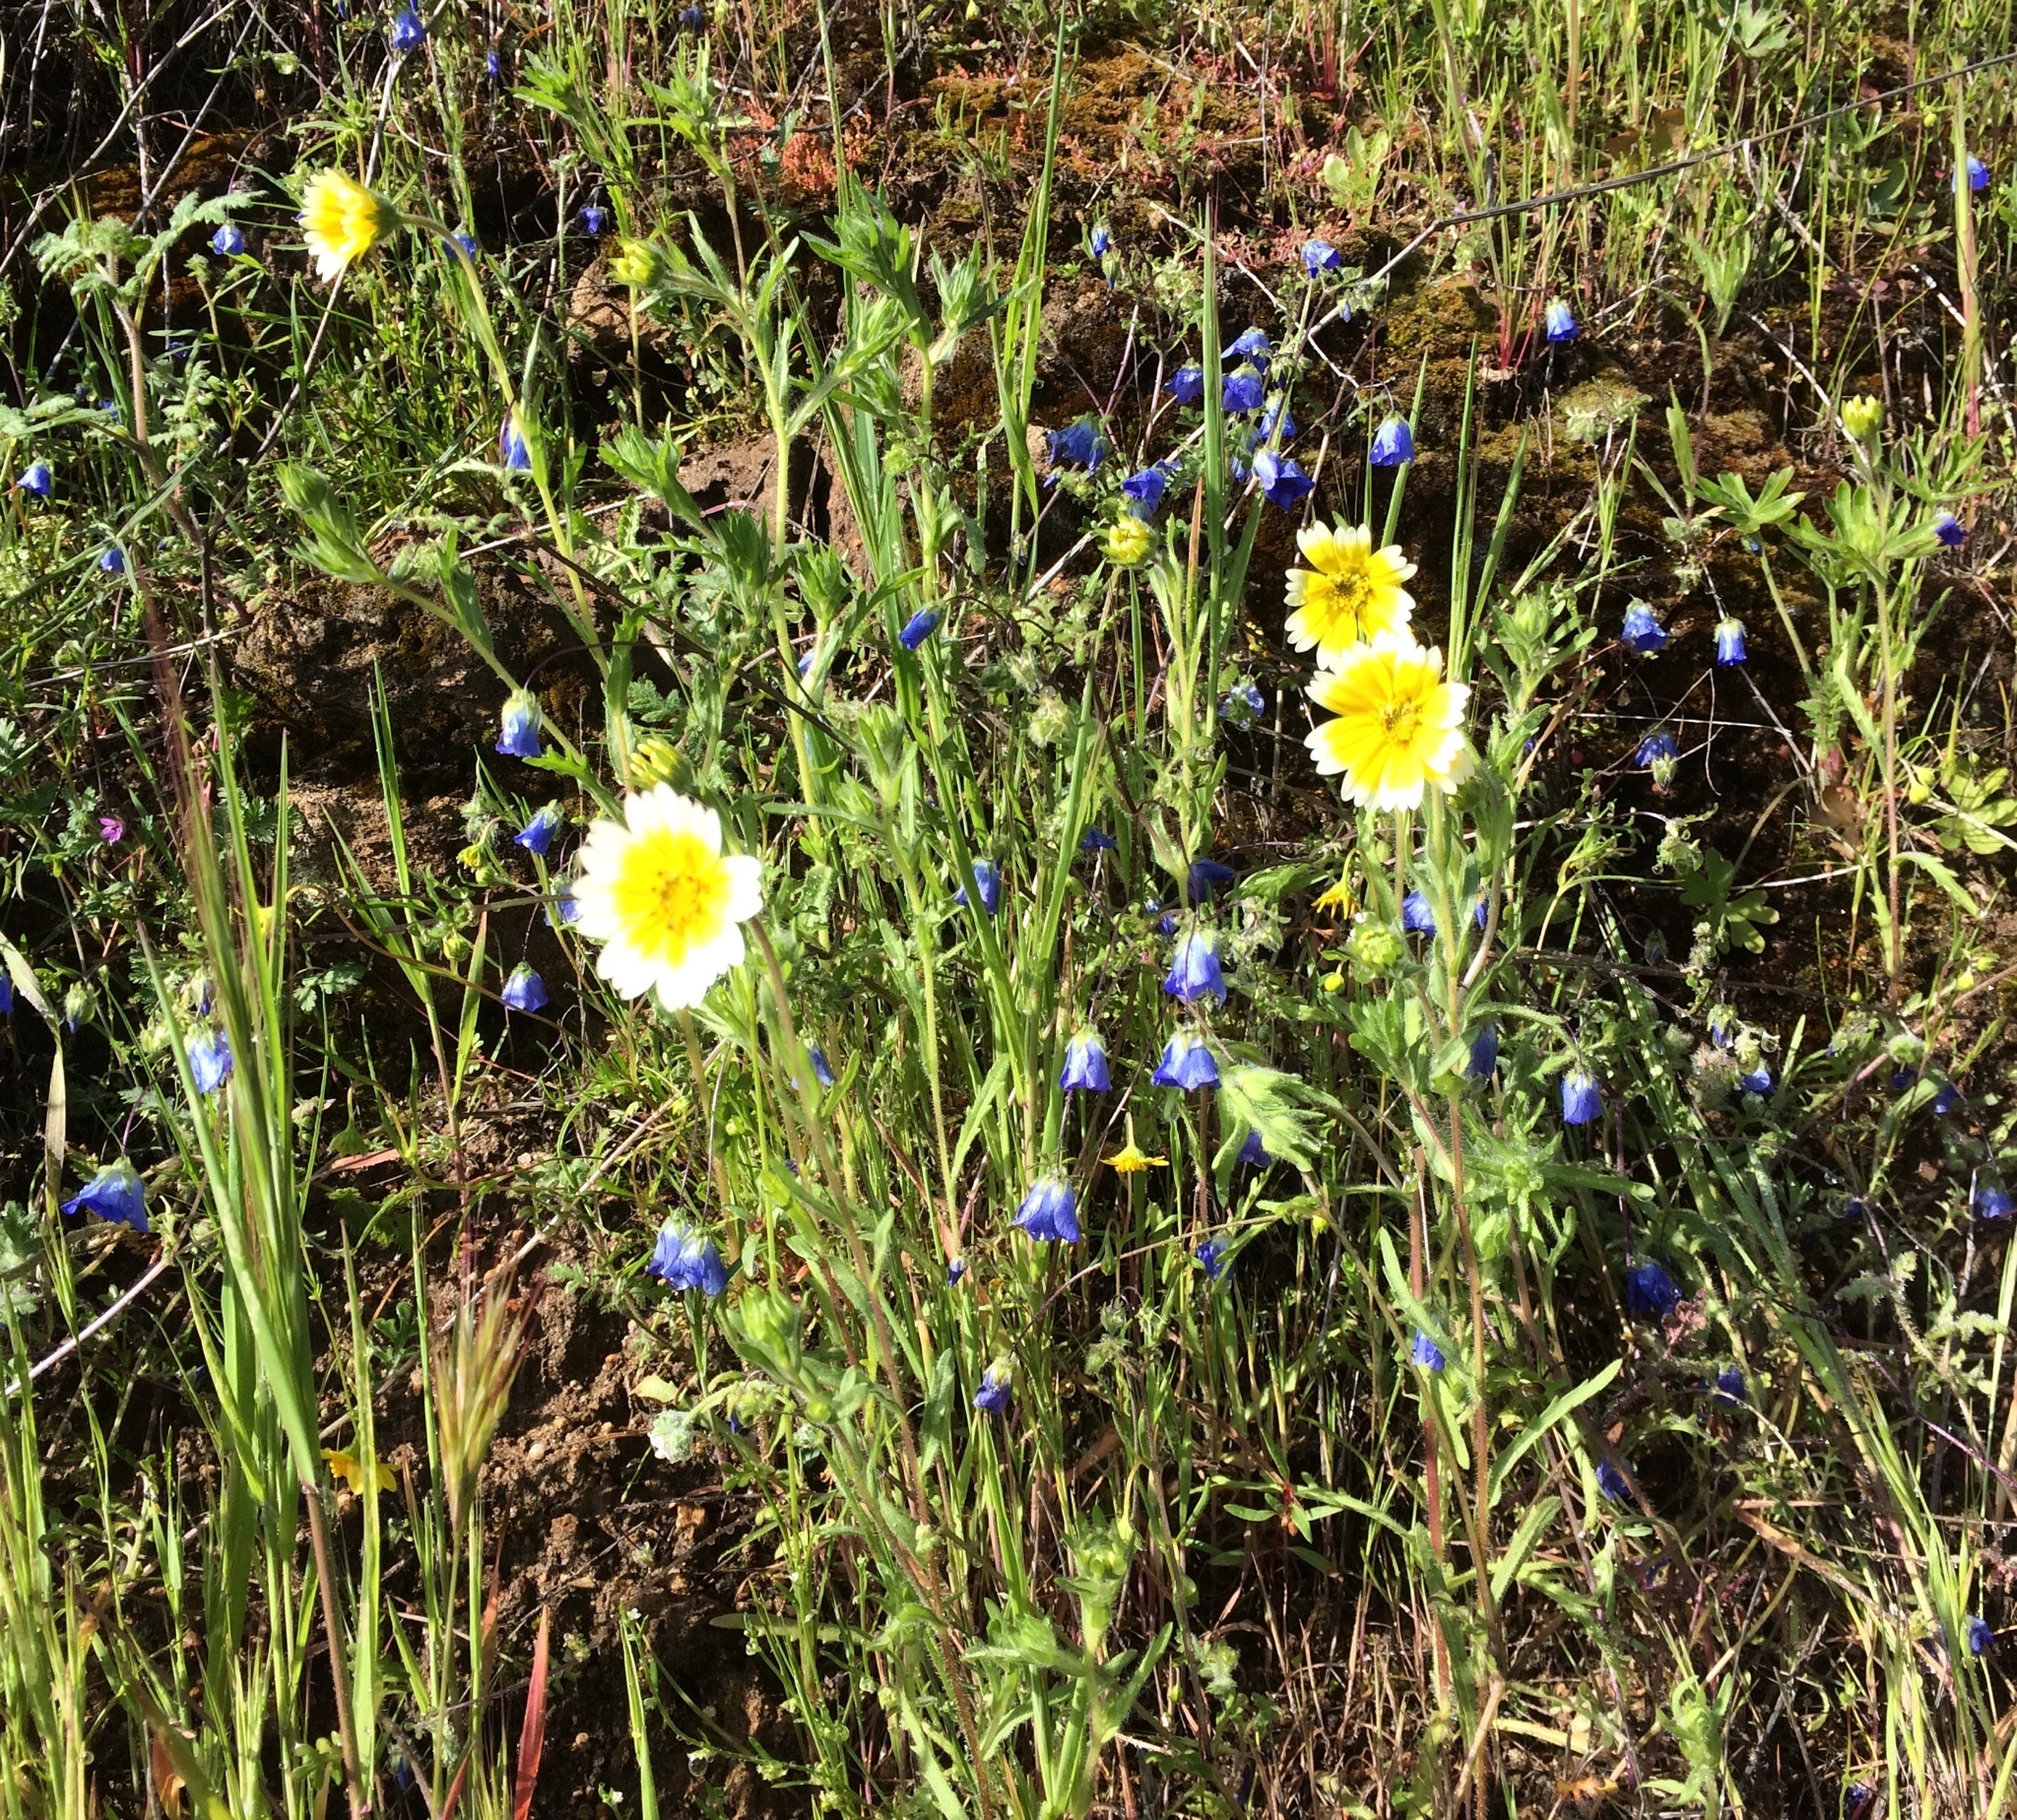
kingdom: Plantae
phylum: Tracheophyta
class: Magnoliopsida
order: Asterales
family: Asteraceae
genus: Layia
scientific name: Layia platyglossa
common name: Tidy-tips
